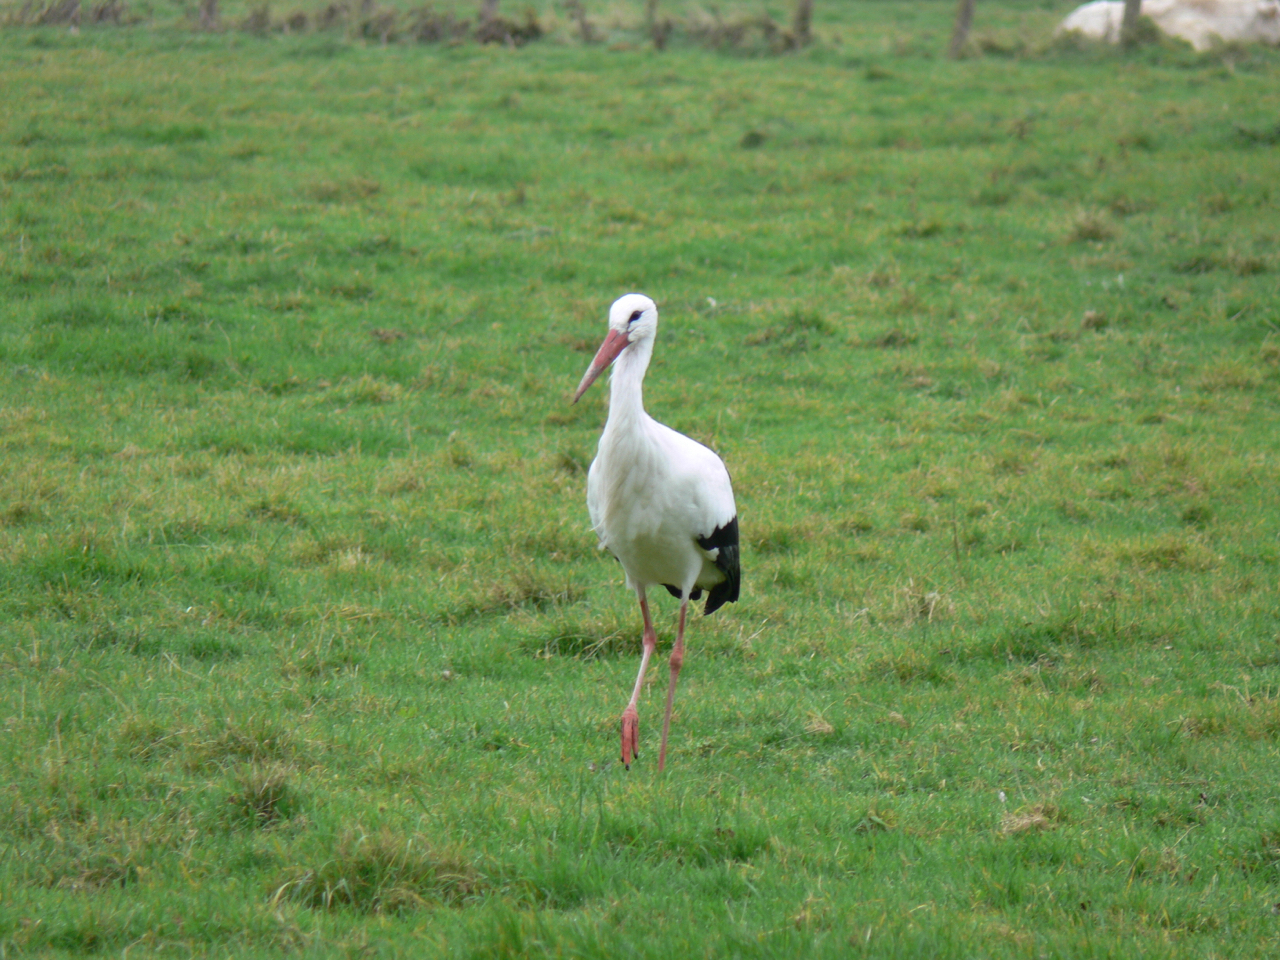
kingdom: Animalia
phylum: Chordata
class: Aves
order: Ciconiiformes
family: Ciconiidae
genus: Ciconia
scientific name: Ciconia ciconia
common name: White stork
